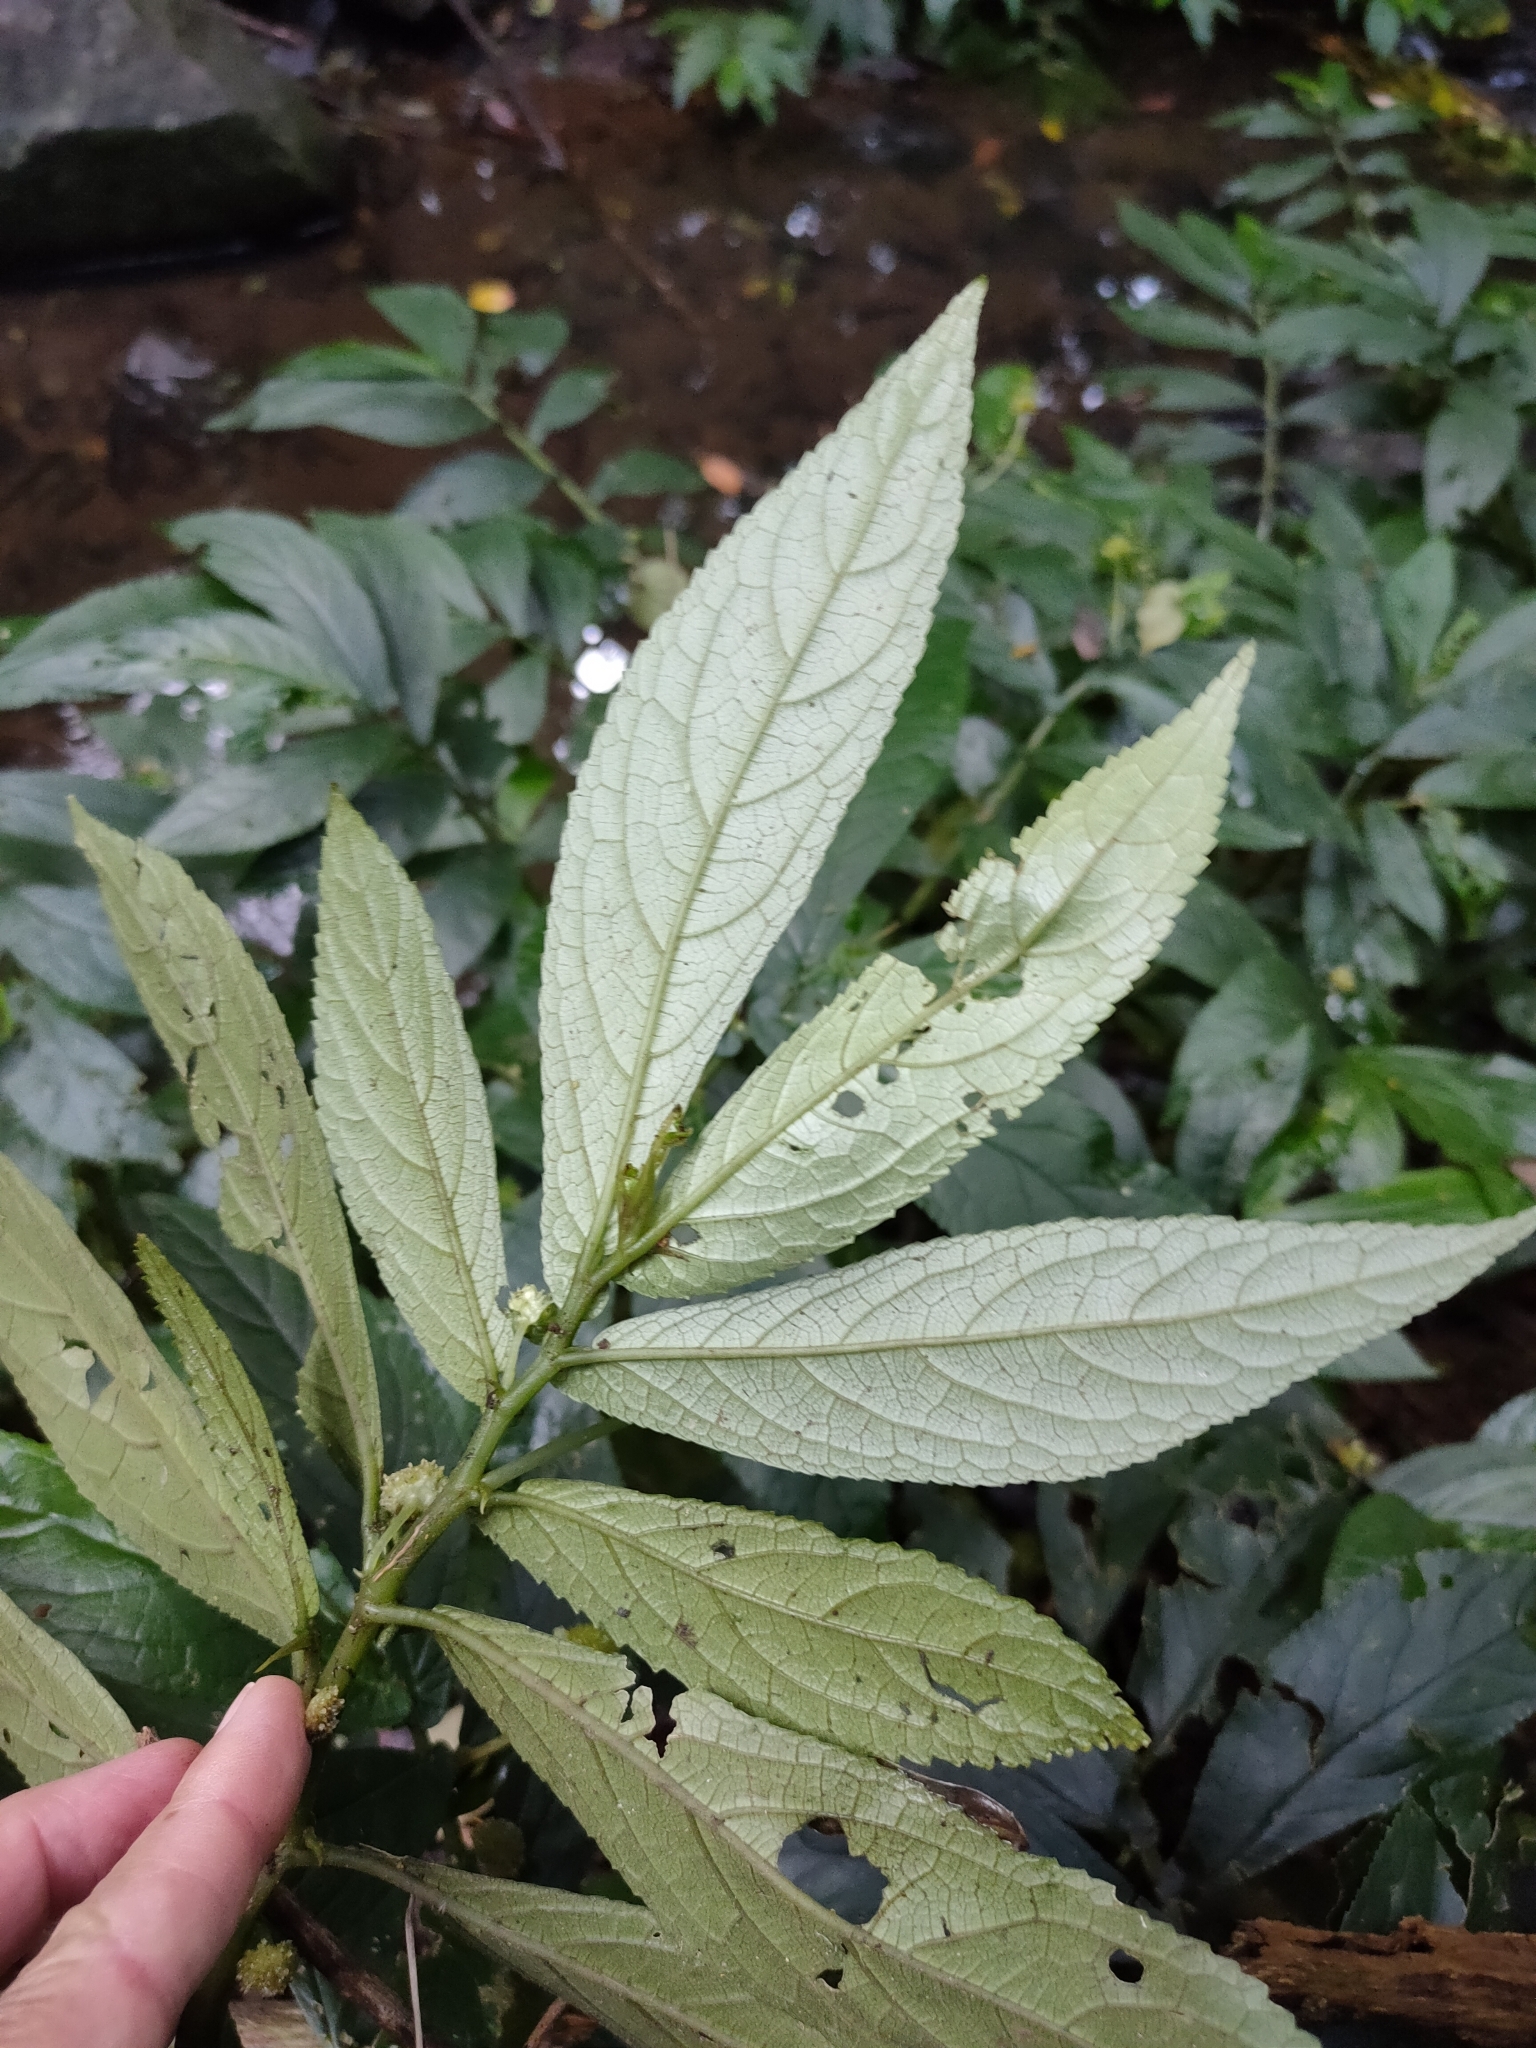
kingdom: Plantae
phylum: Tracheophyta
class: Magnoliopsida
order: Rosales
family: Urticaceae
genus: Elatostema
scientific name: Elatostema reticulatum
